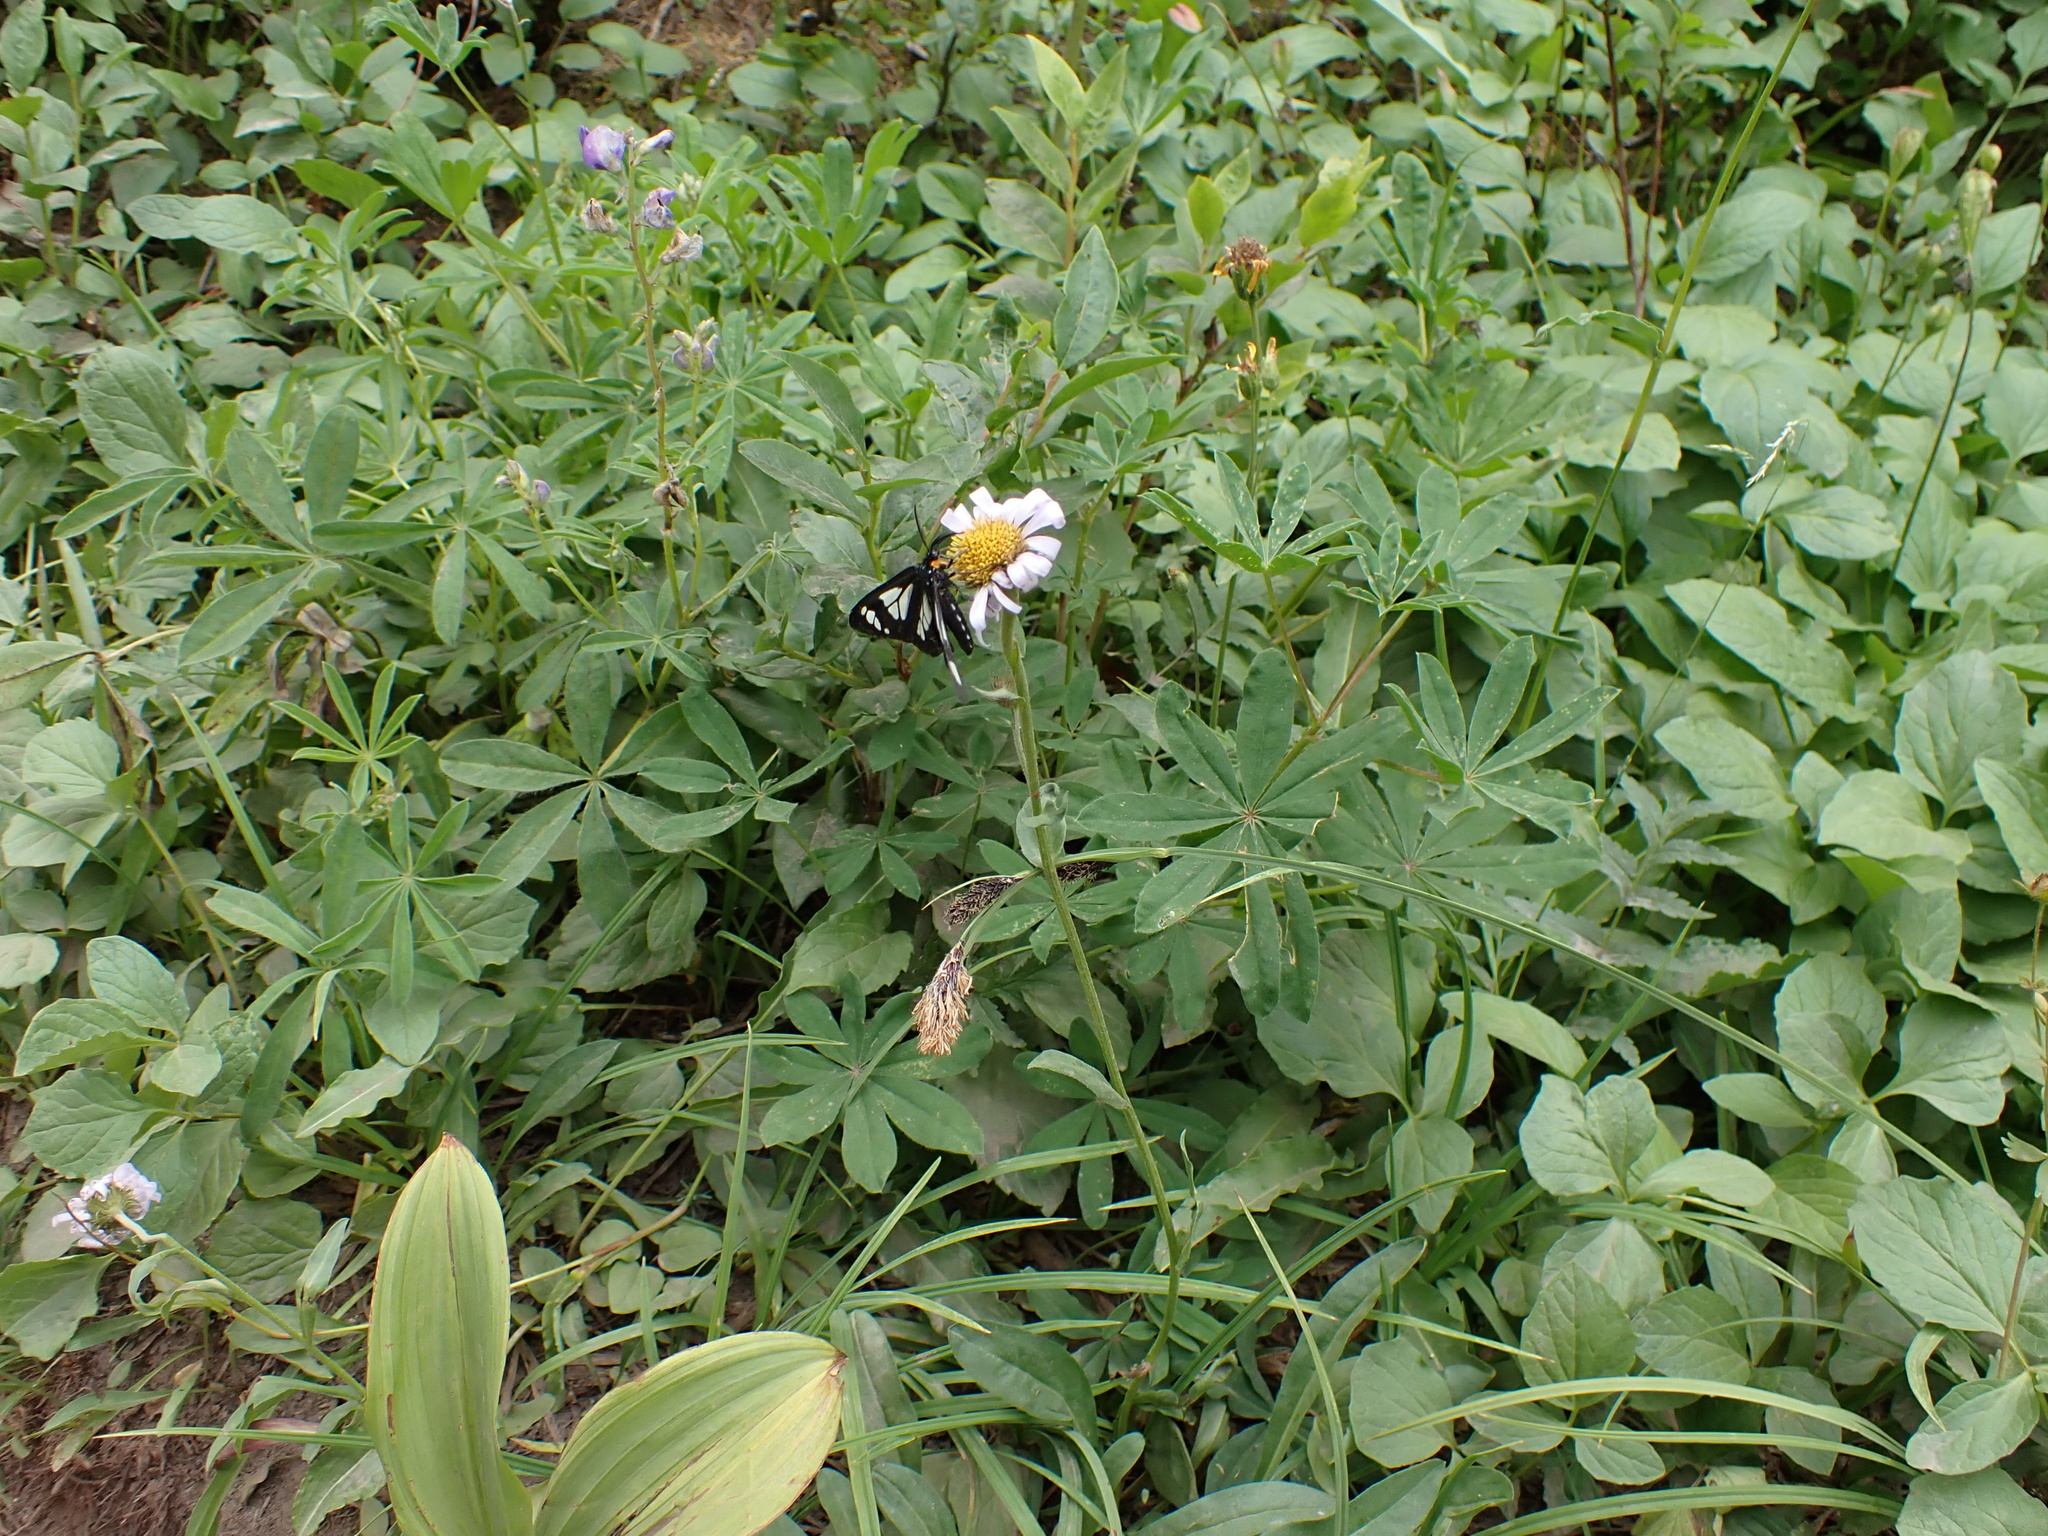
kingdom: Animalia
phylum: Arthropoda
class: Insecta
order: Lepidoptera
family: Erebidae
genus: Gnophaela
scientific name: Gnophaela vermiculata
